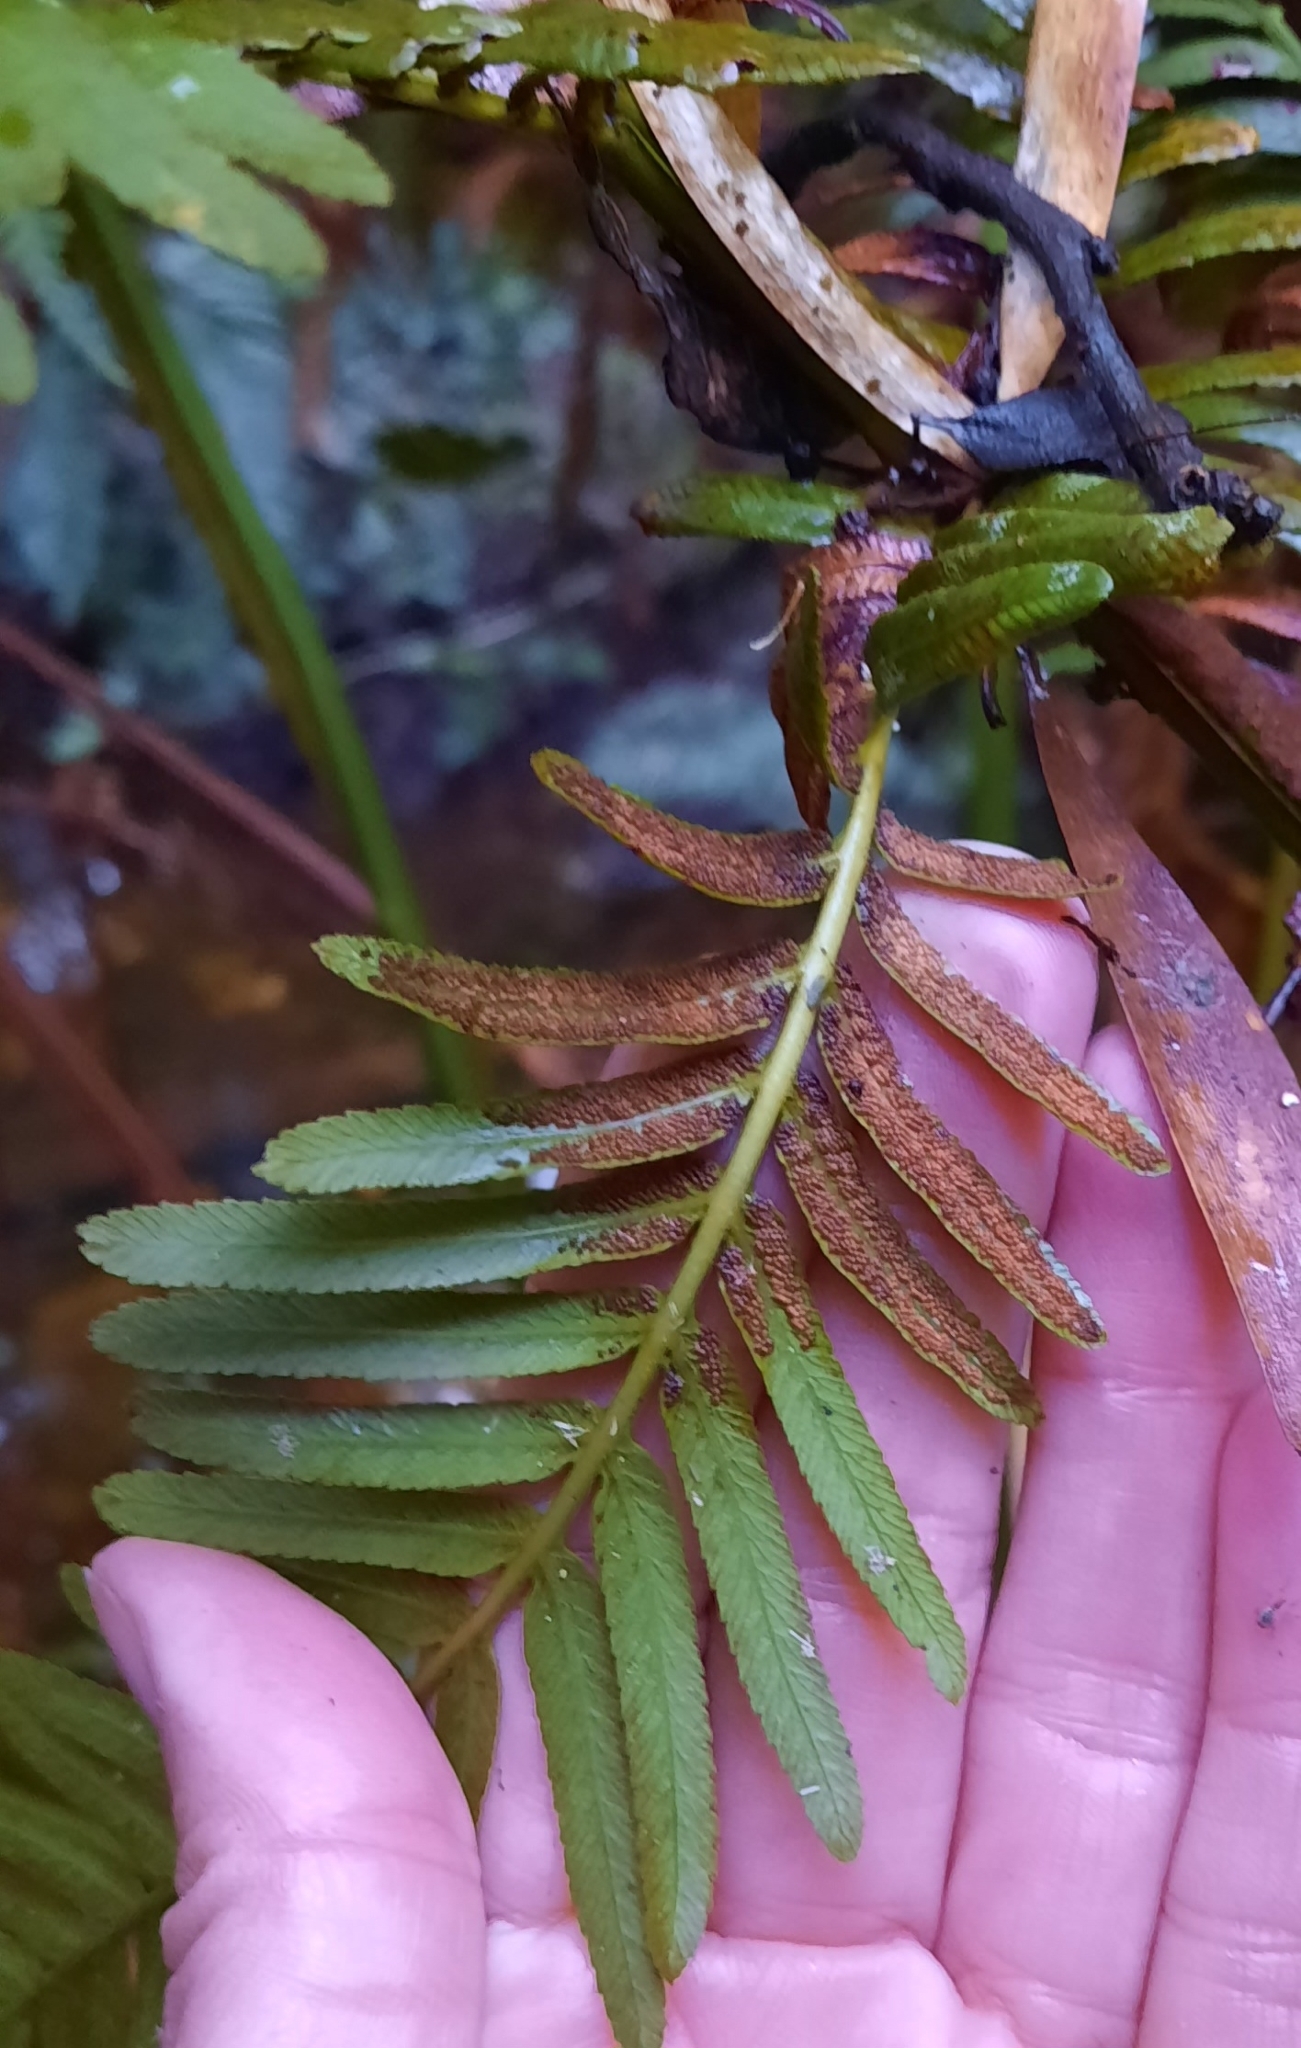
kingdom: Plantae
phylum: Tracheophyta
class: Polypodiopsida
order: Osmundales
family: Osmundaceae
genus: Todea
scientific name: Todea barbara
